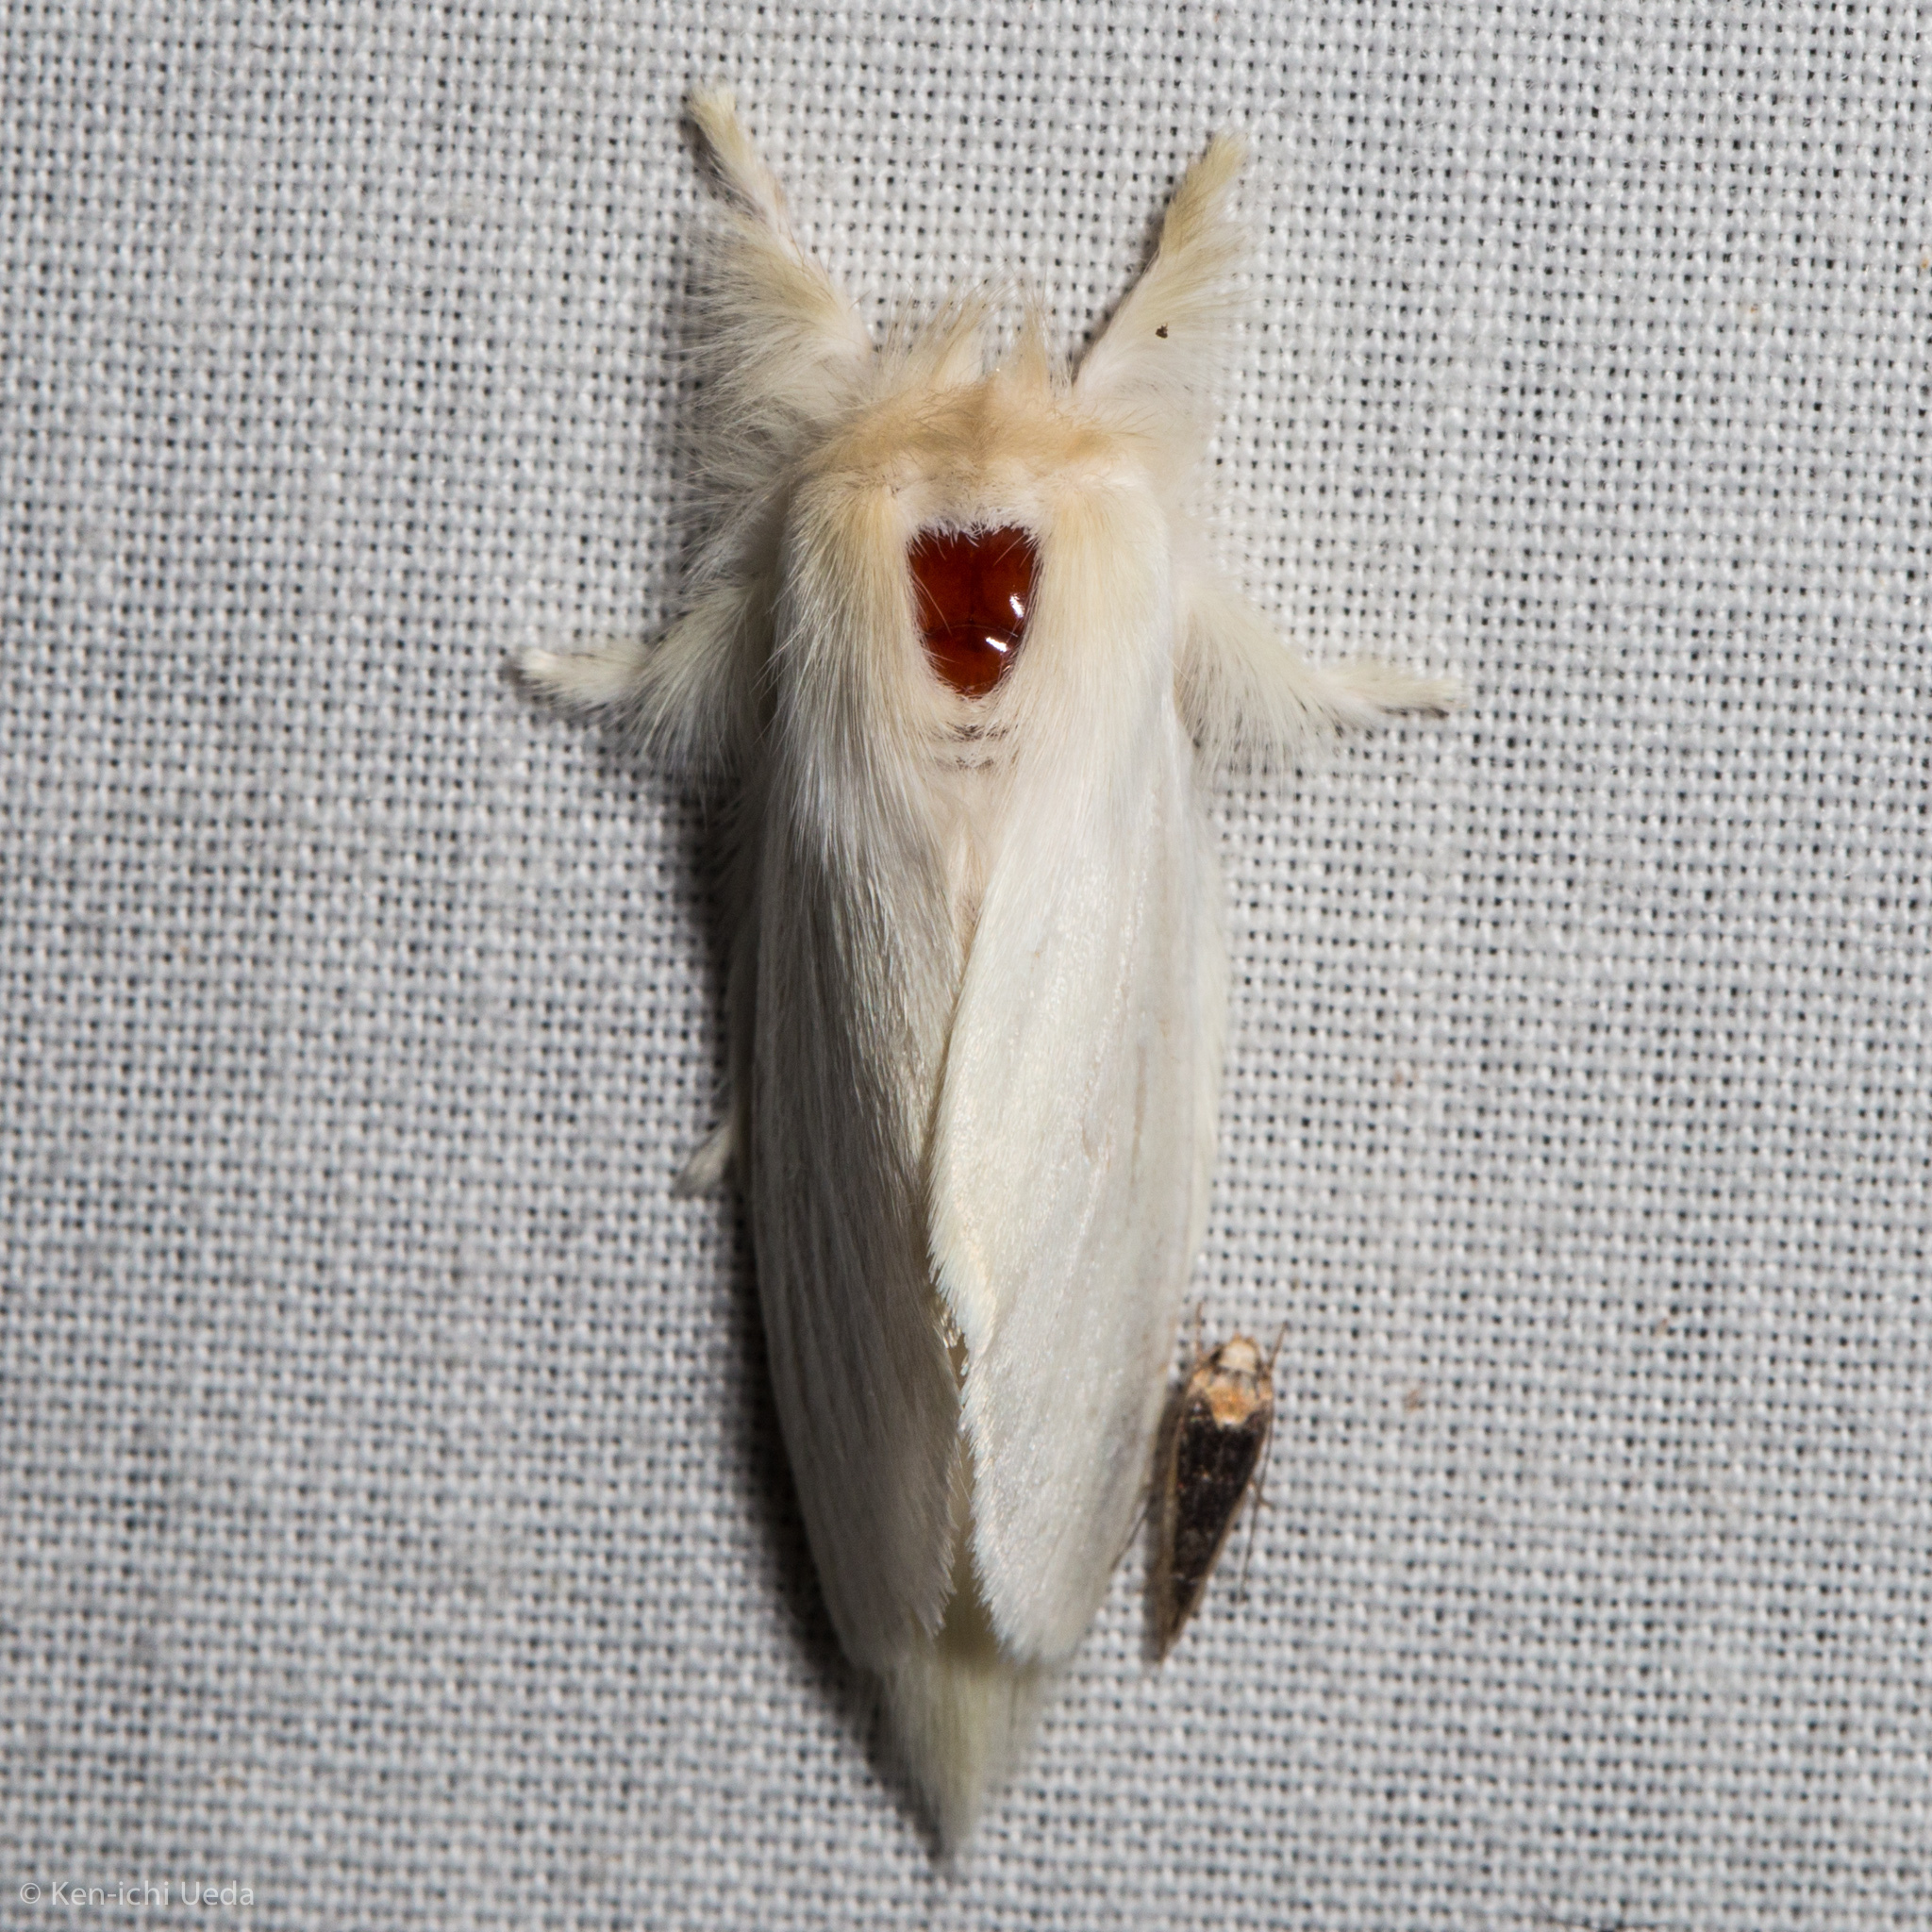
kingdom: Animalia
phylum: Arthropoda
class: Insecta
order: Lepidoptera
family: Notodontidae
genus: Trichiocercus
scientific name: Trichiocercus sparshalli
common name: Long-tailed satin
